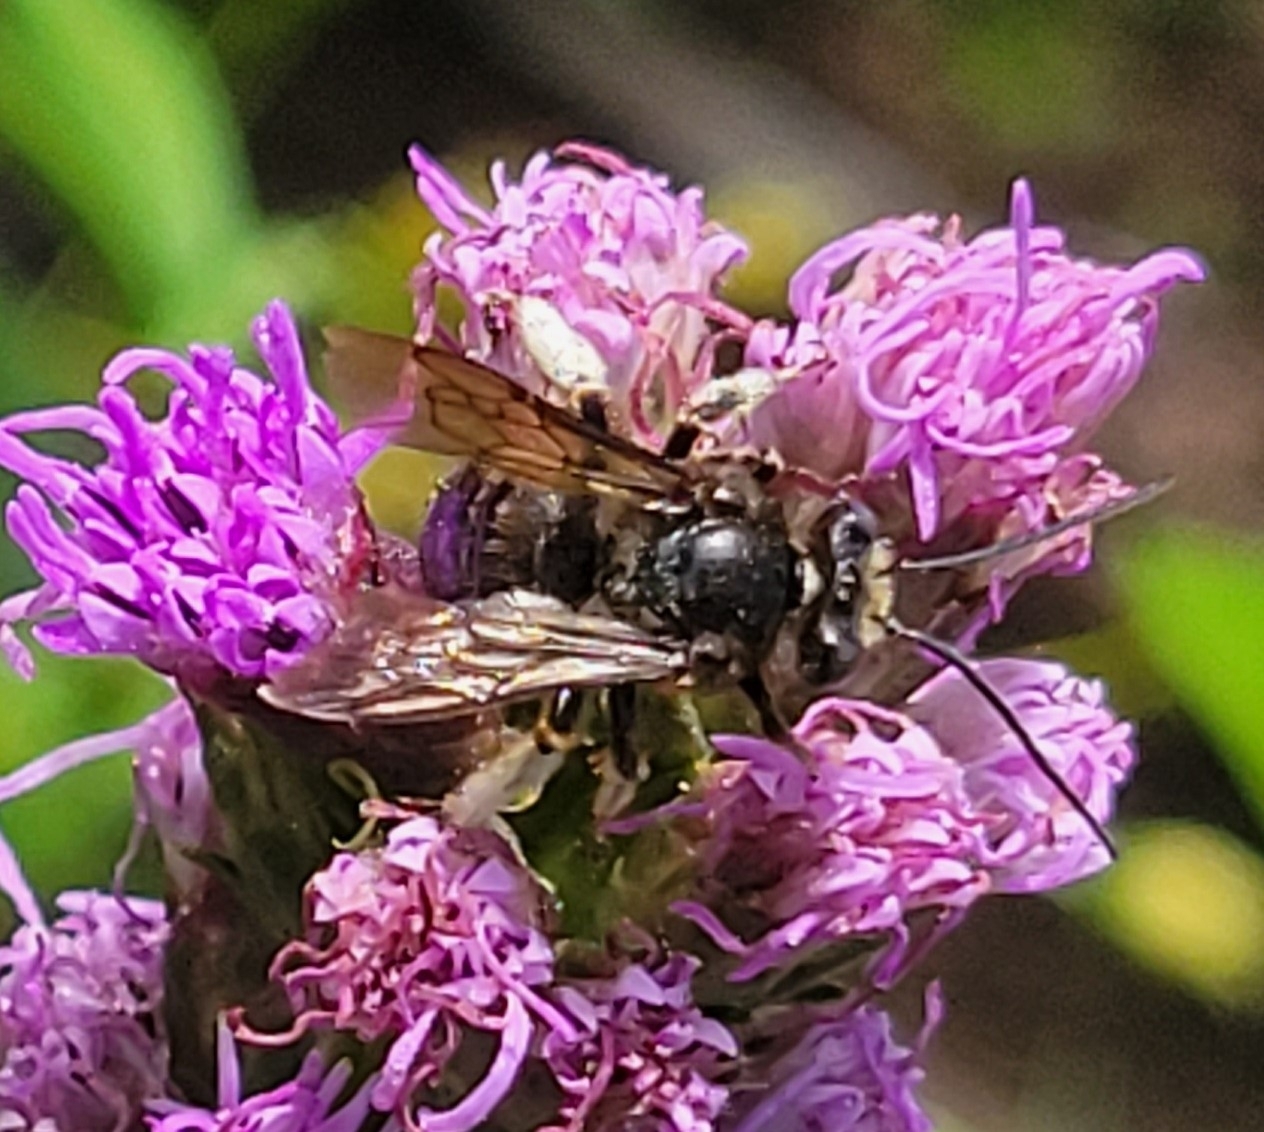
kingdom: Animalia
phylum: Arthropoda
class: Insecta
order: Hymenoptera
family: Apidae
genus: Melissodes
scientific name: Melissodes bimaculatus
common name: Two-spotted long-horned bee
